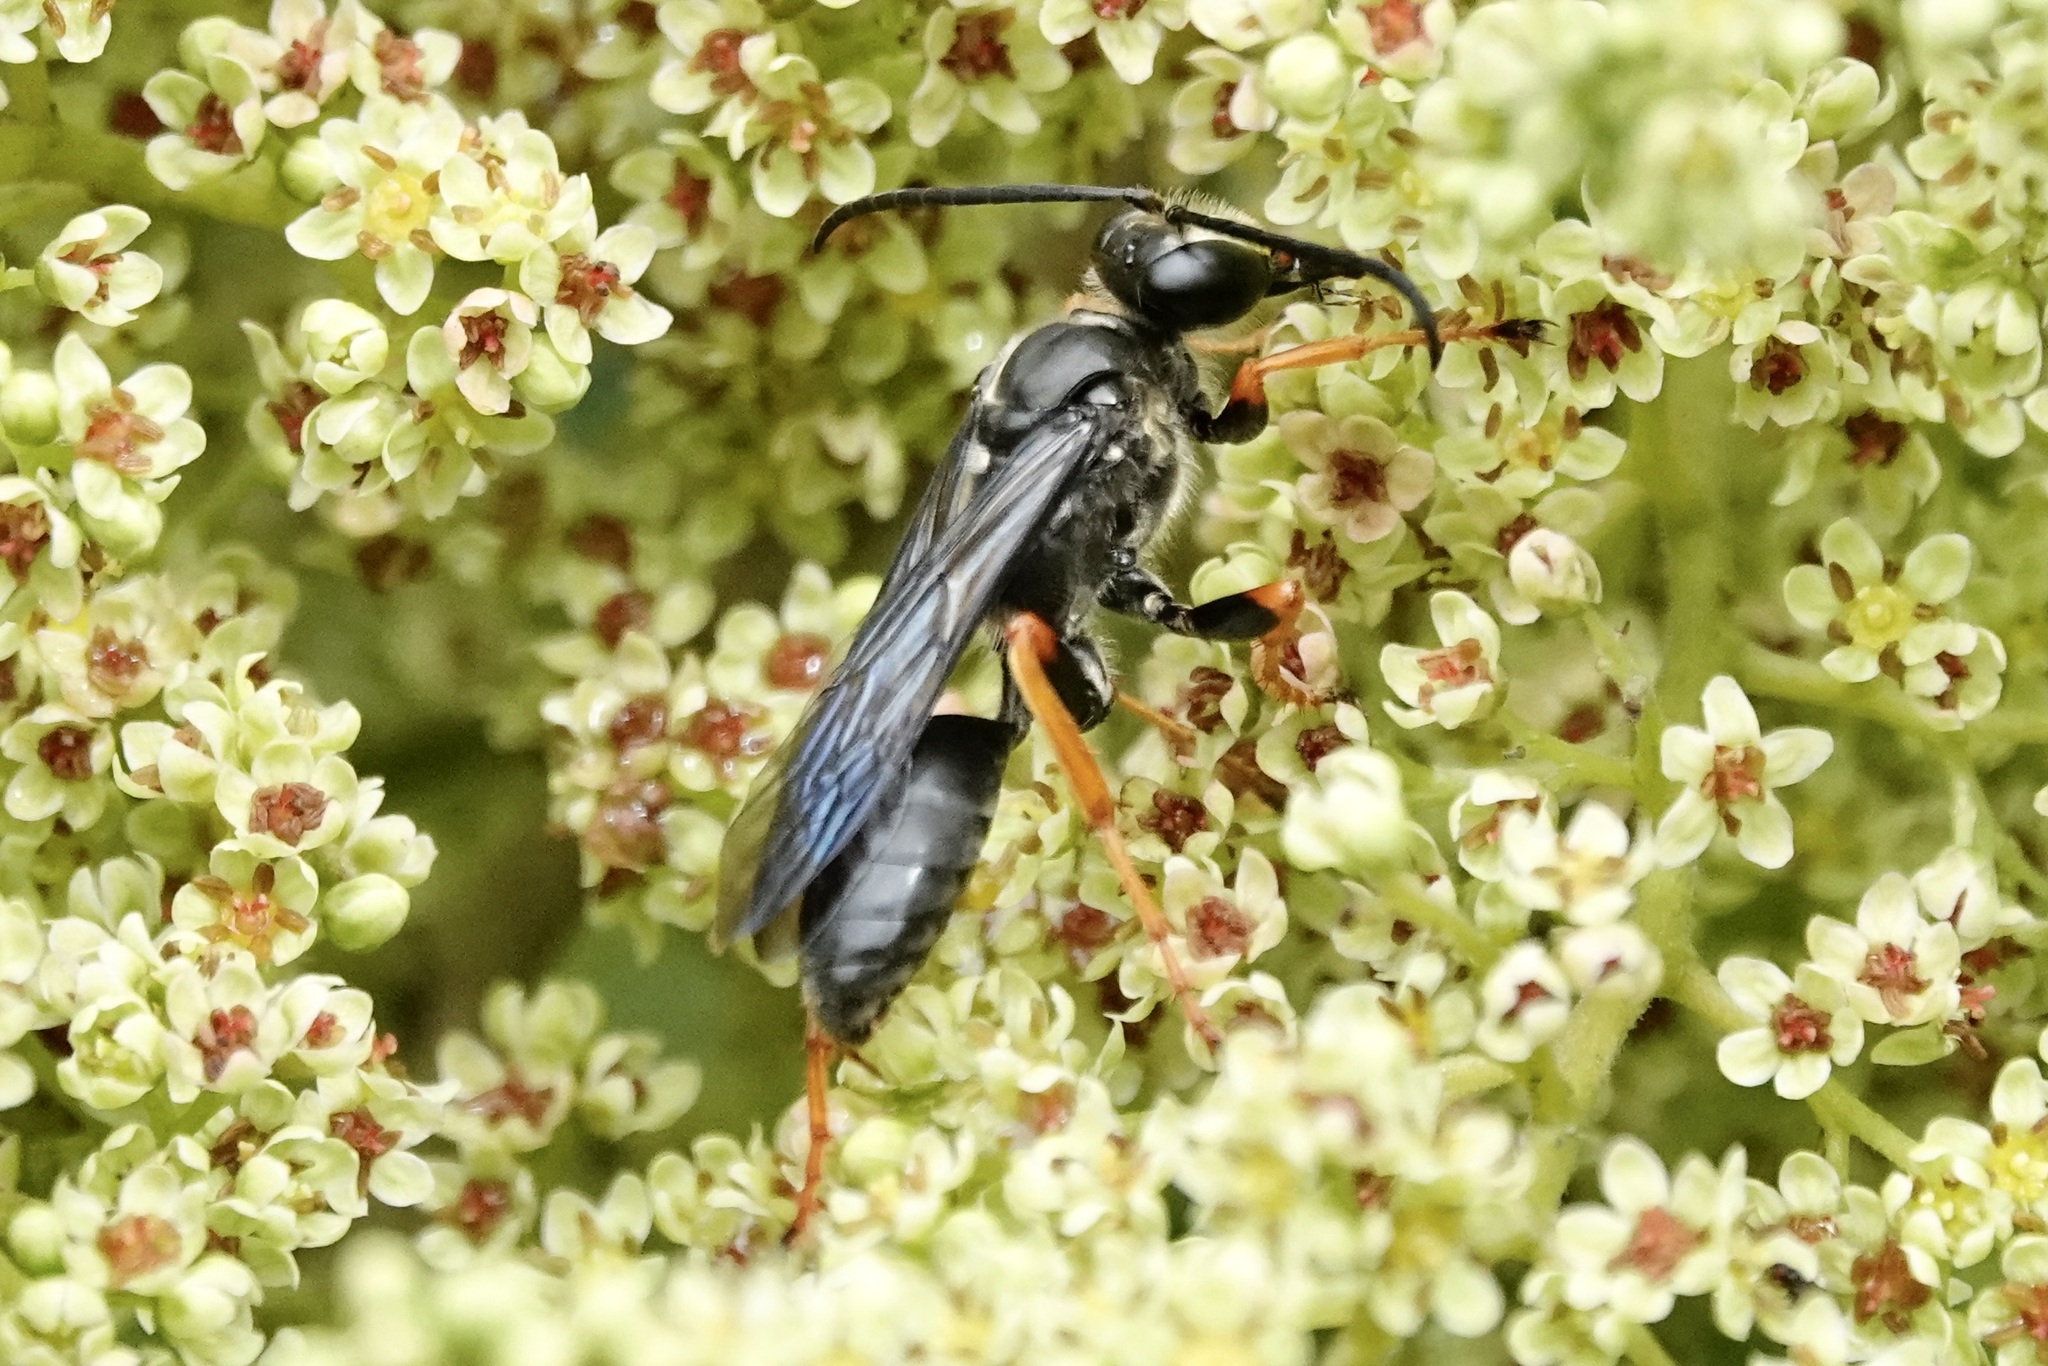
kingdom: Animalia
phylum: Arthropoda
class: Insecta
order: Hymenoptera
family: Sphecidae
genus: Sphex
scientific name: Sphex nudus
